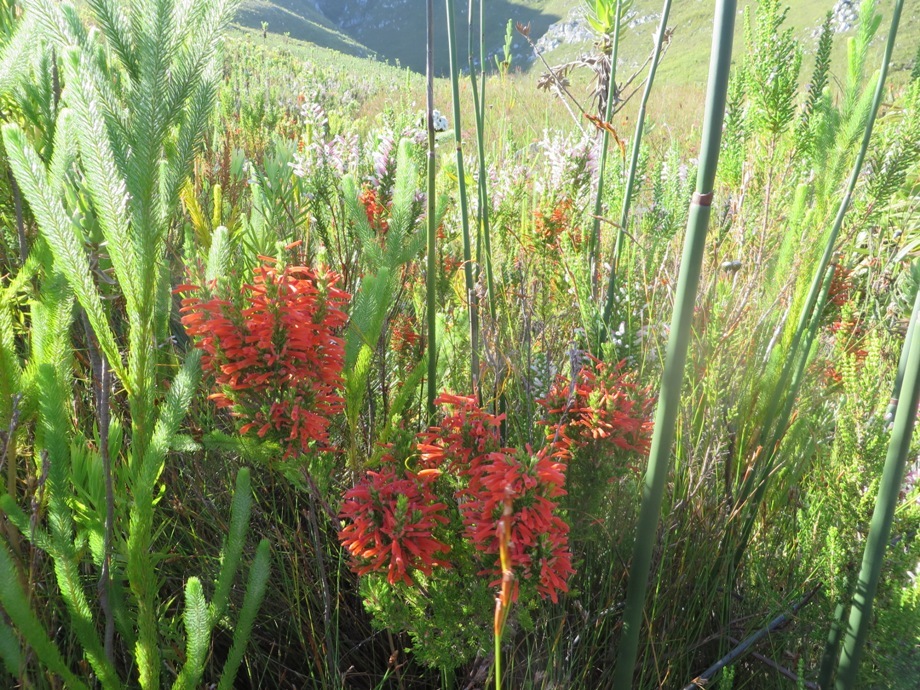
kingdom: Plantae
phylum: Tracheophyta
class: Magnoliopsida
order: Ericales
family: Ericaceae
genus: Erica
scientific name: Erica perspicua
